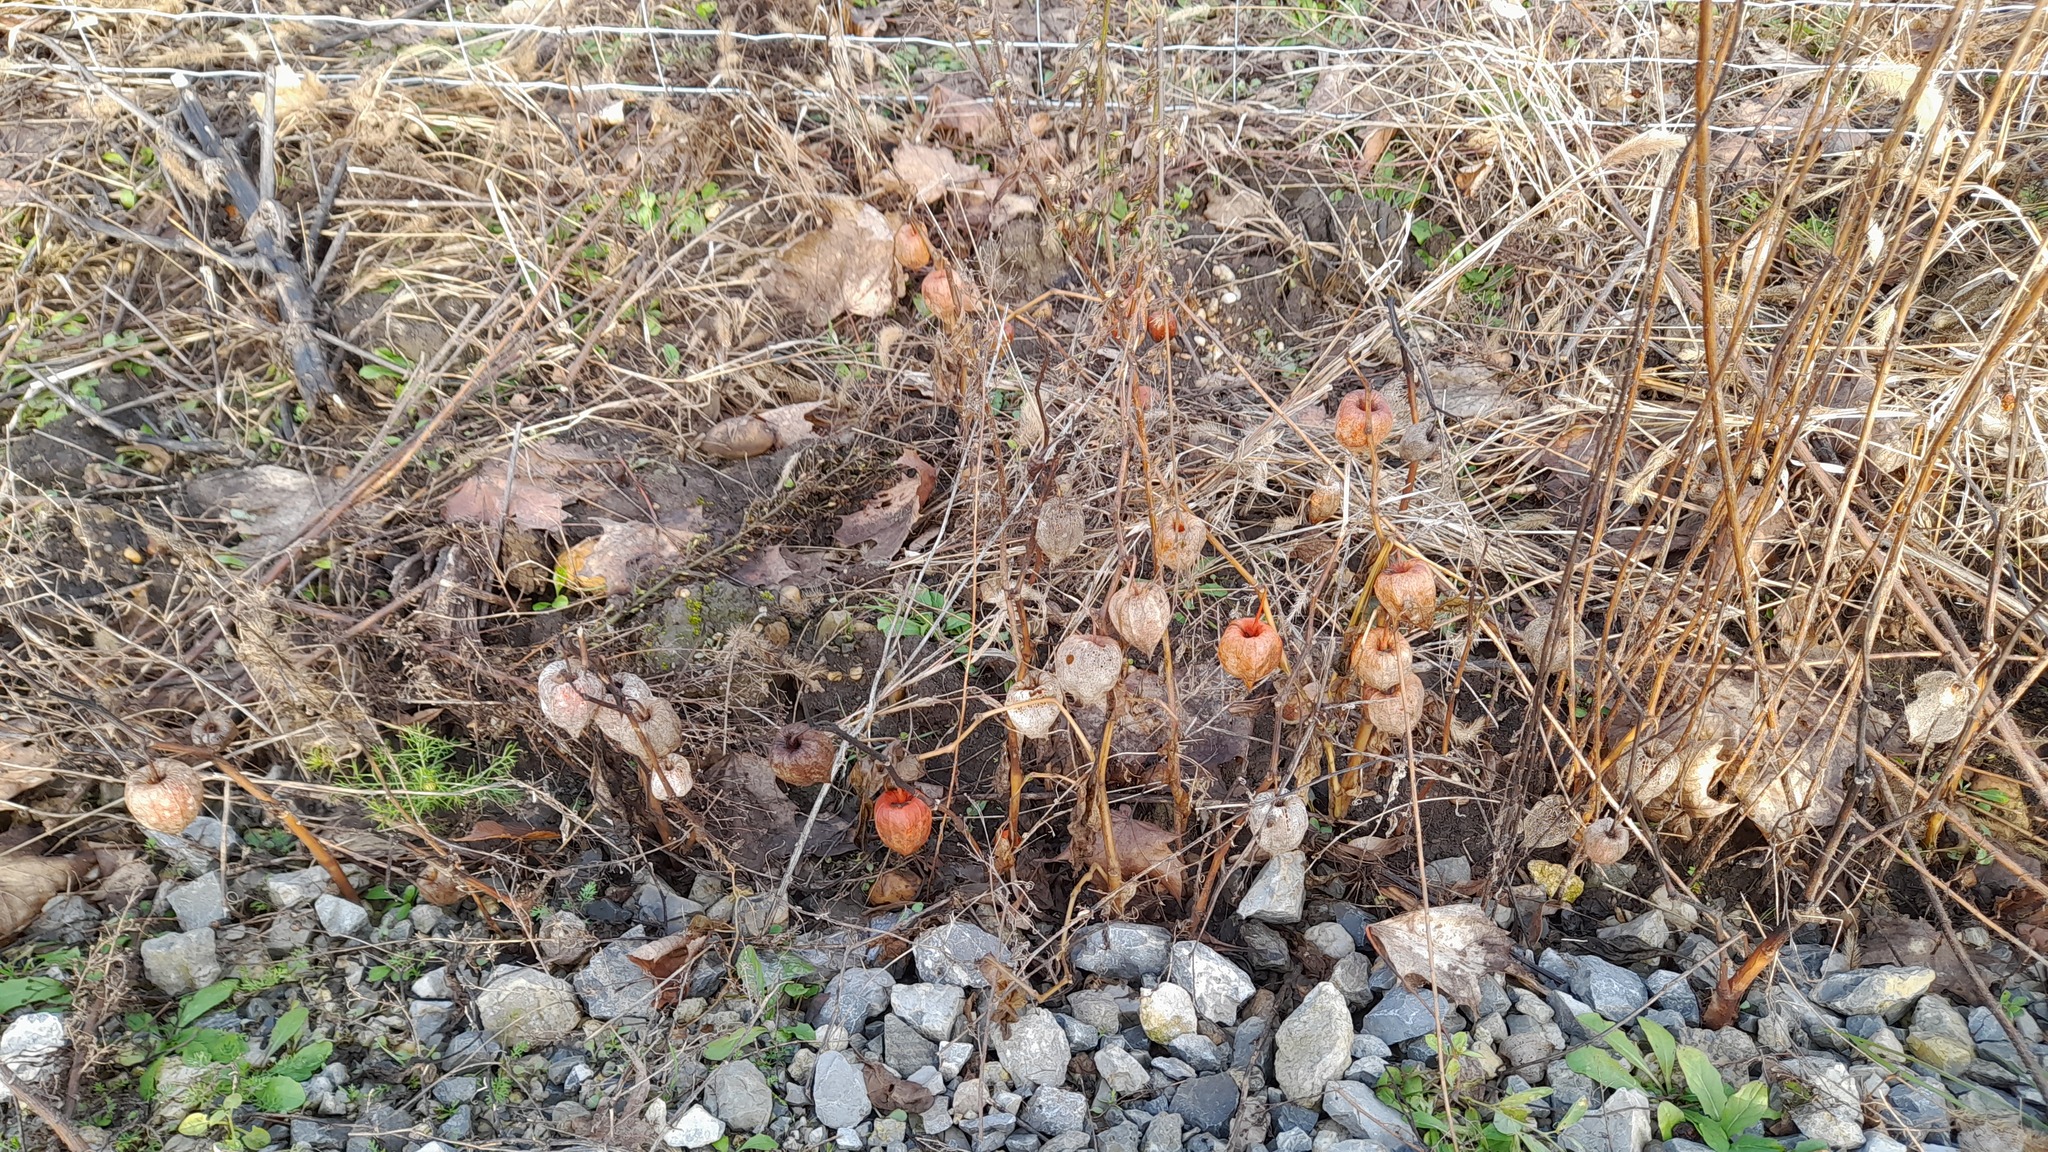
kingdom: Plantae
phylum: Tracheophyta
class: Magnoliopsida
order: Solanales
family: Solanaceae
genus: Alkekengi
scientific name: Alkekengi officinarum
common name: Japanese-lantern
